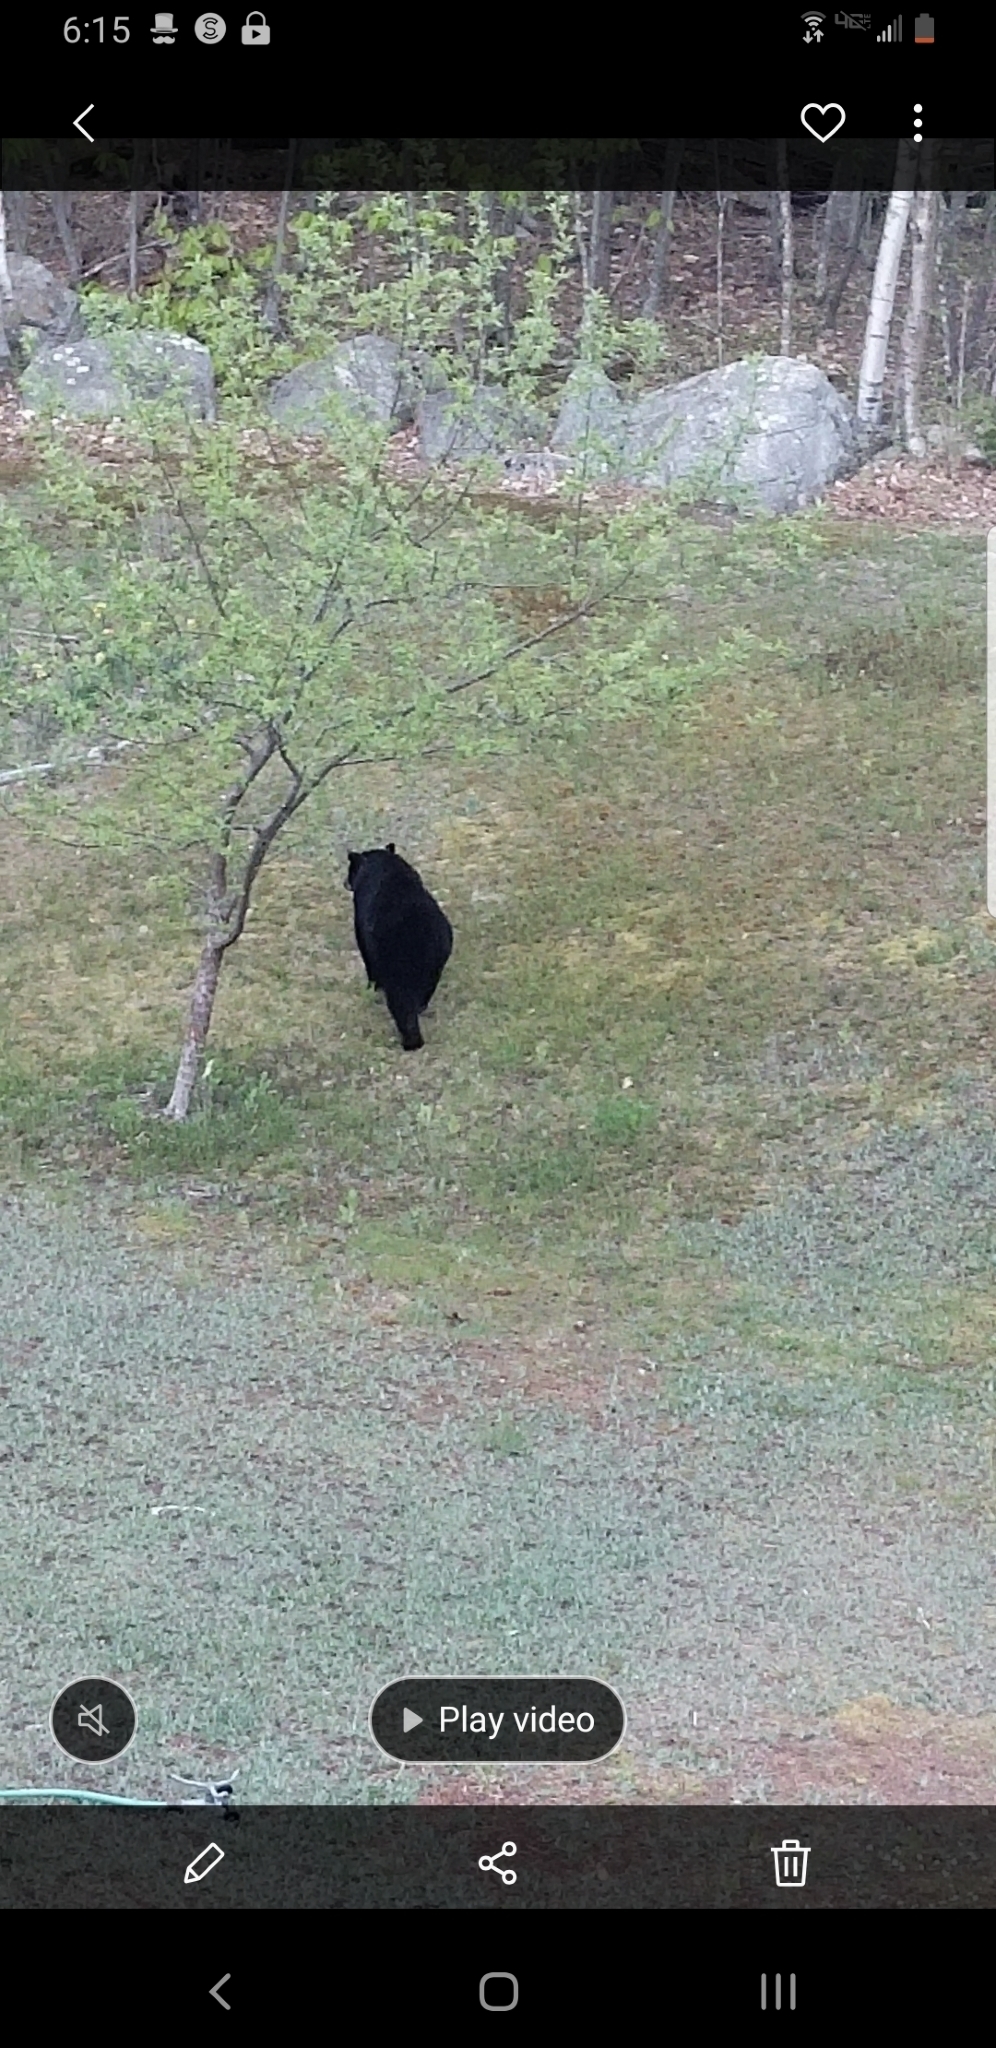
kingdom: Animalia
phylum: Chordata
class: Mammalia
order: Carnivora
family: Ursidae
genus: Ursus
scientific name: Ursus americanus
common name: American black bear
